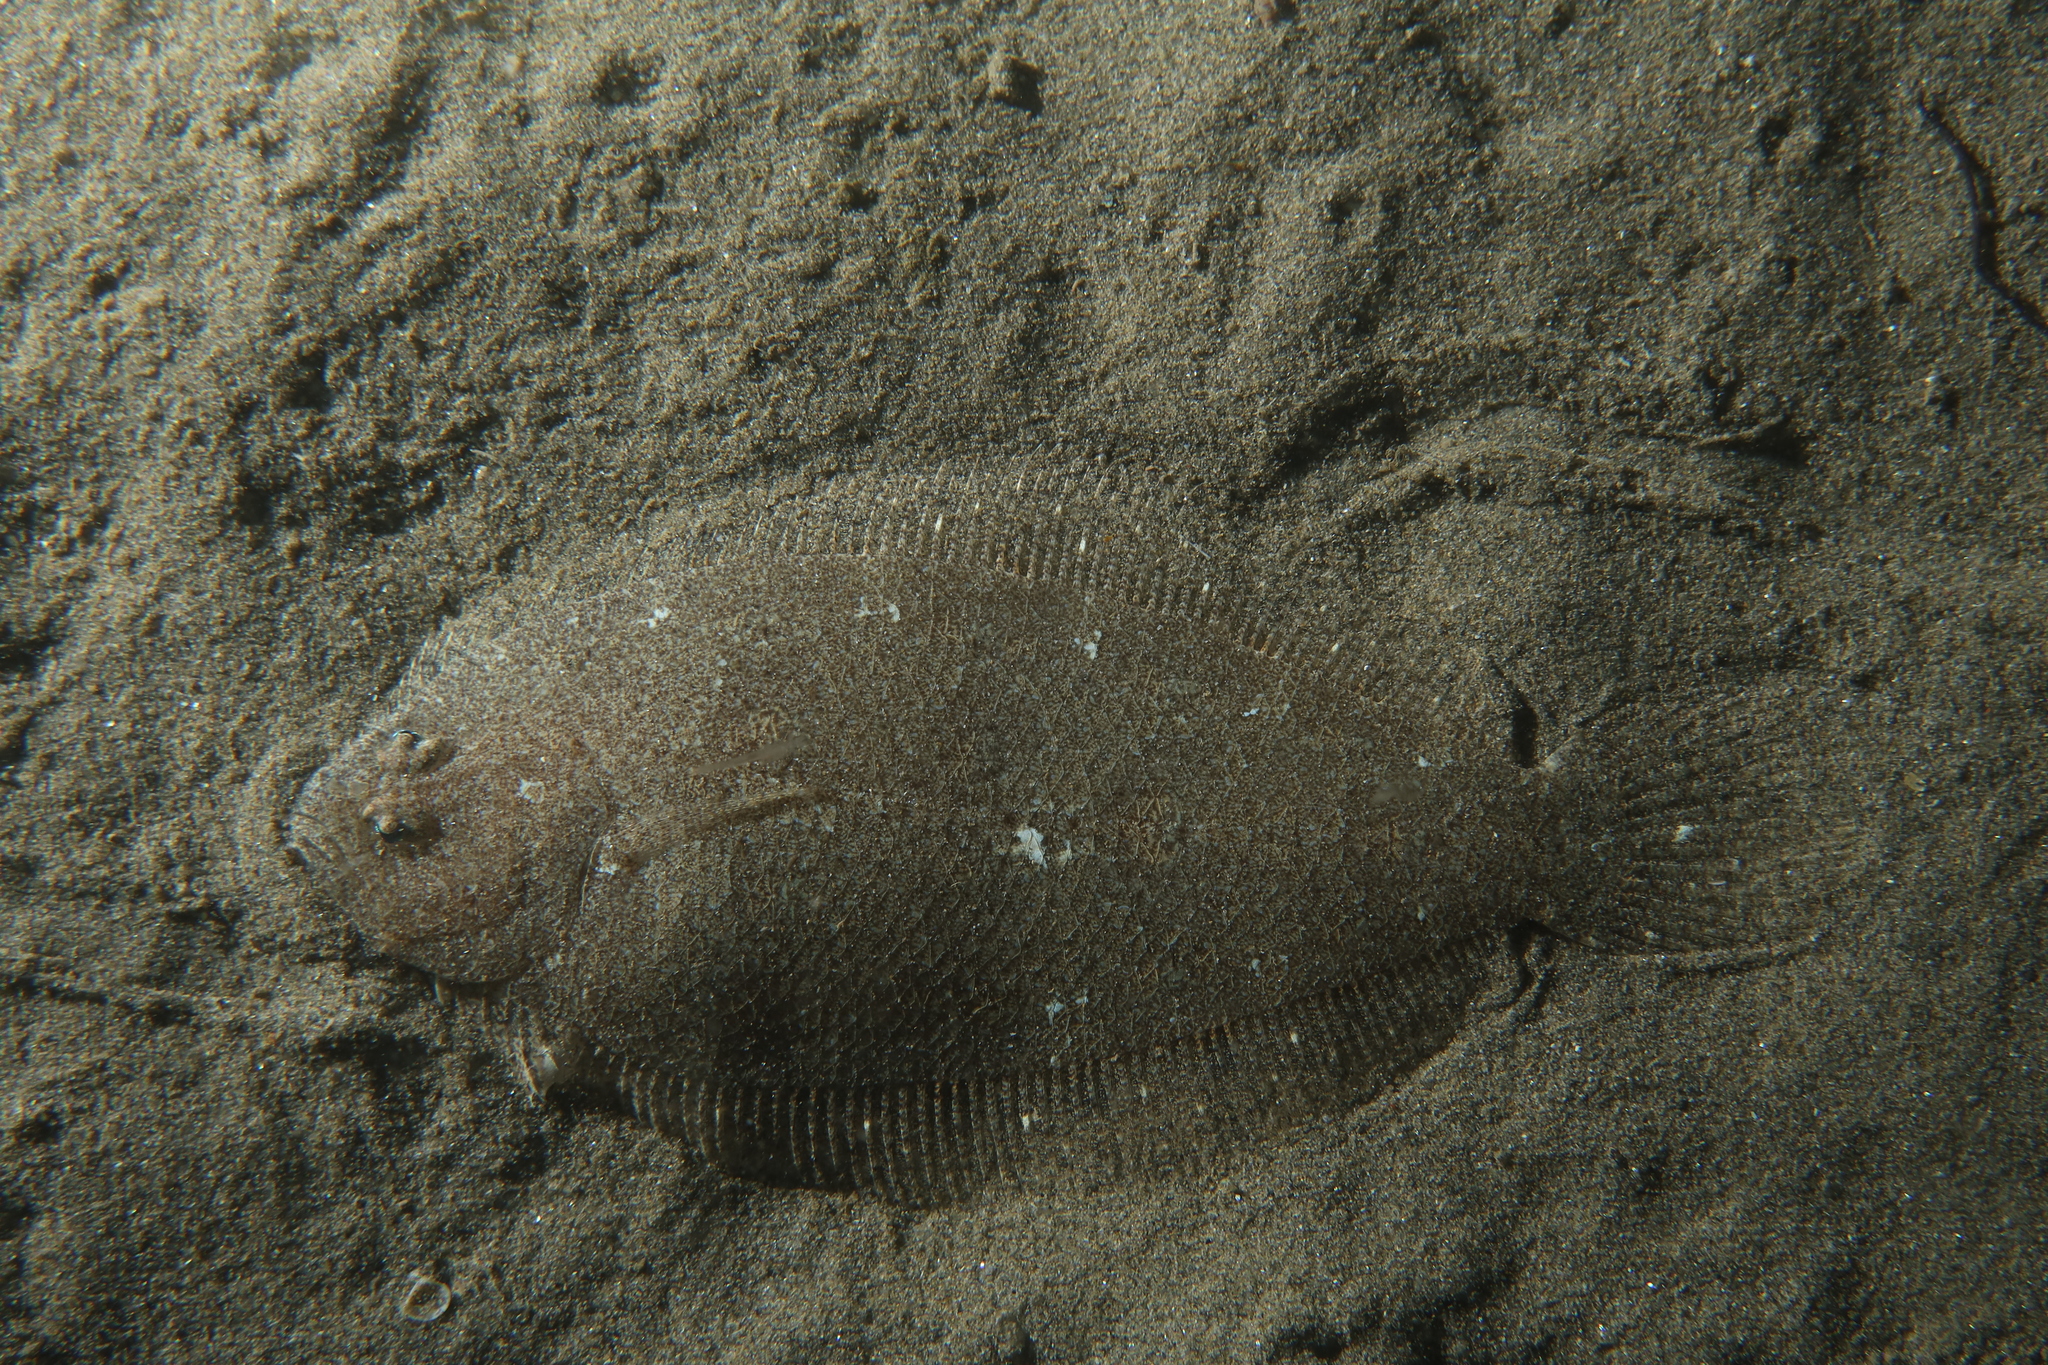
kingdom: Animalia
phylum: Chordata
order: Pleuronectiformes
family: Bothidae
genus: Arnoglossus
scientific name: Arnoglossus laterna
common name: Scaldfish
